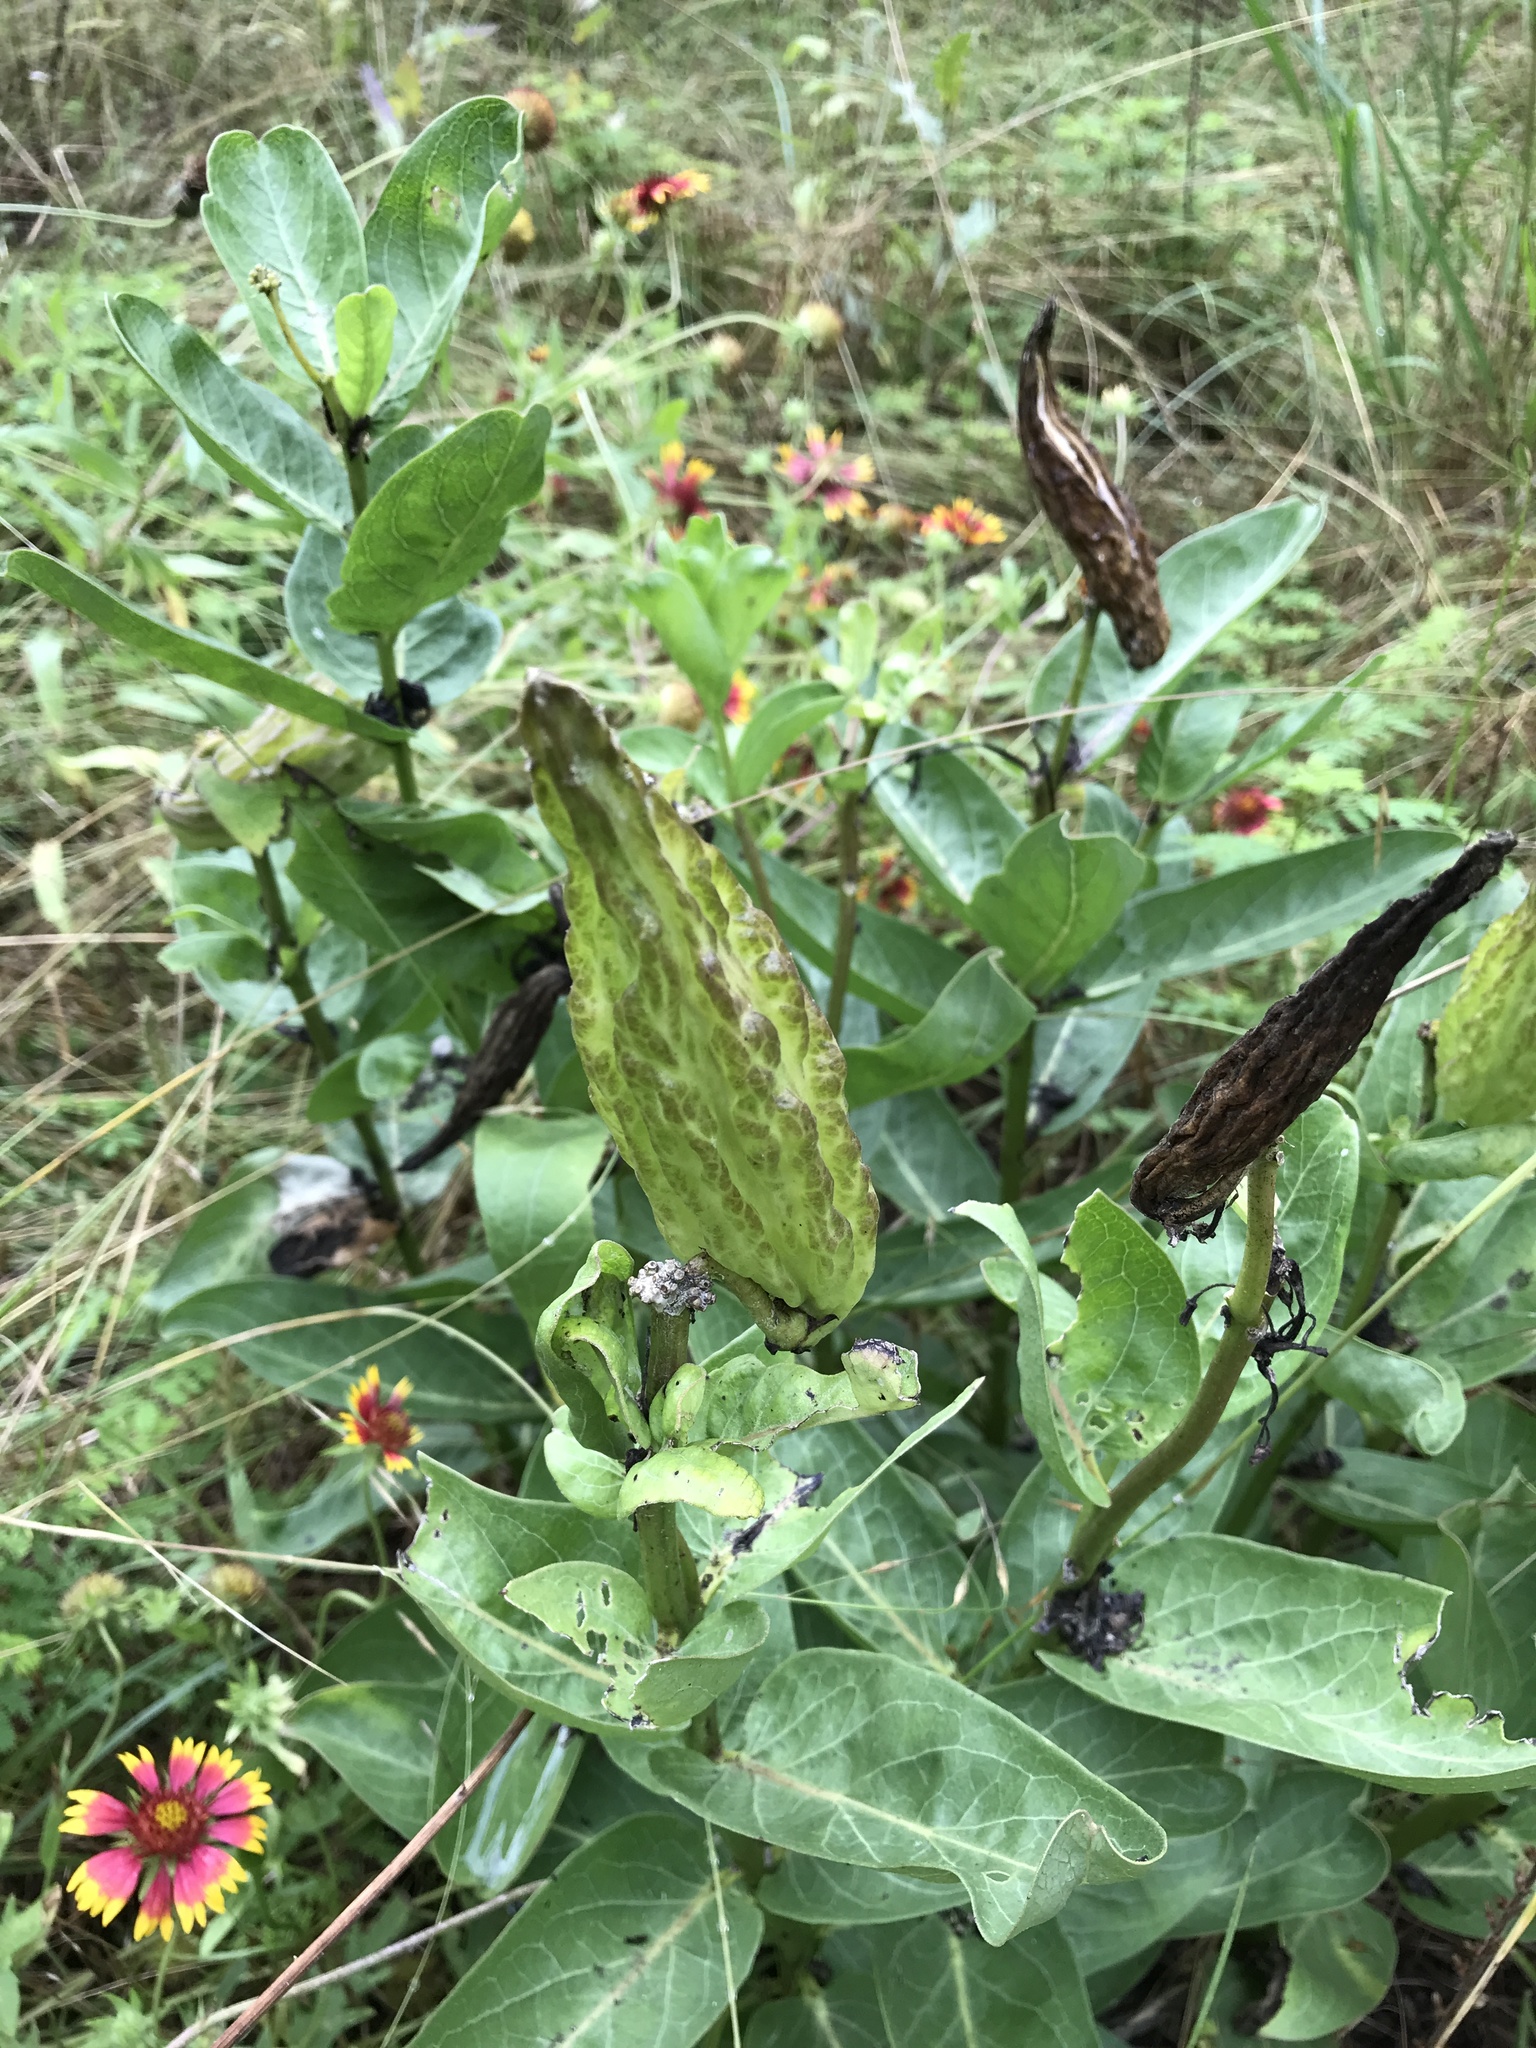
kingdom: Plantae
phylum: Tracheophyta
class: Magnoliopsida
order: Gentianales
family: Apocynaceae
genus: Asclepias
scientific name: Asclepias viridis
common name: Antelope-horns
